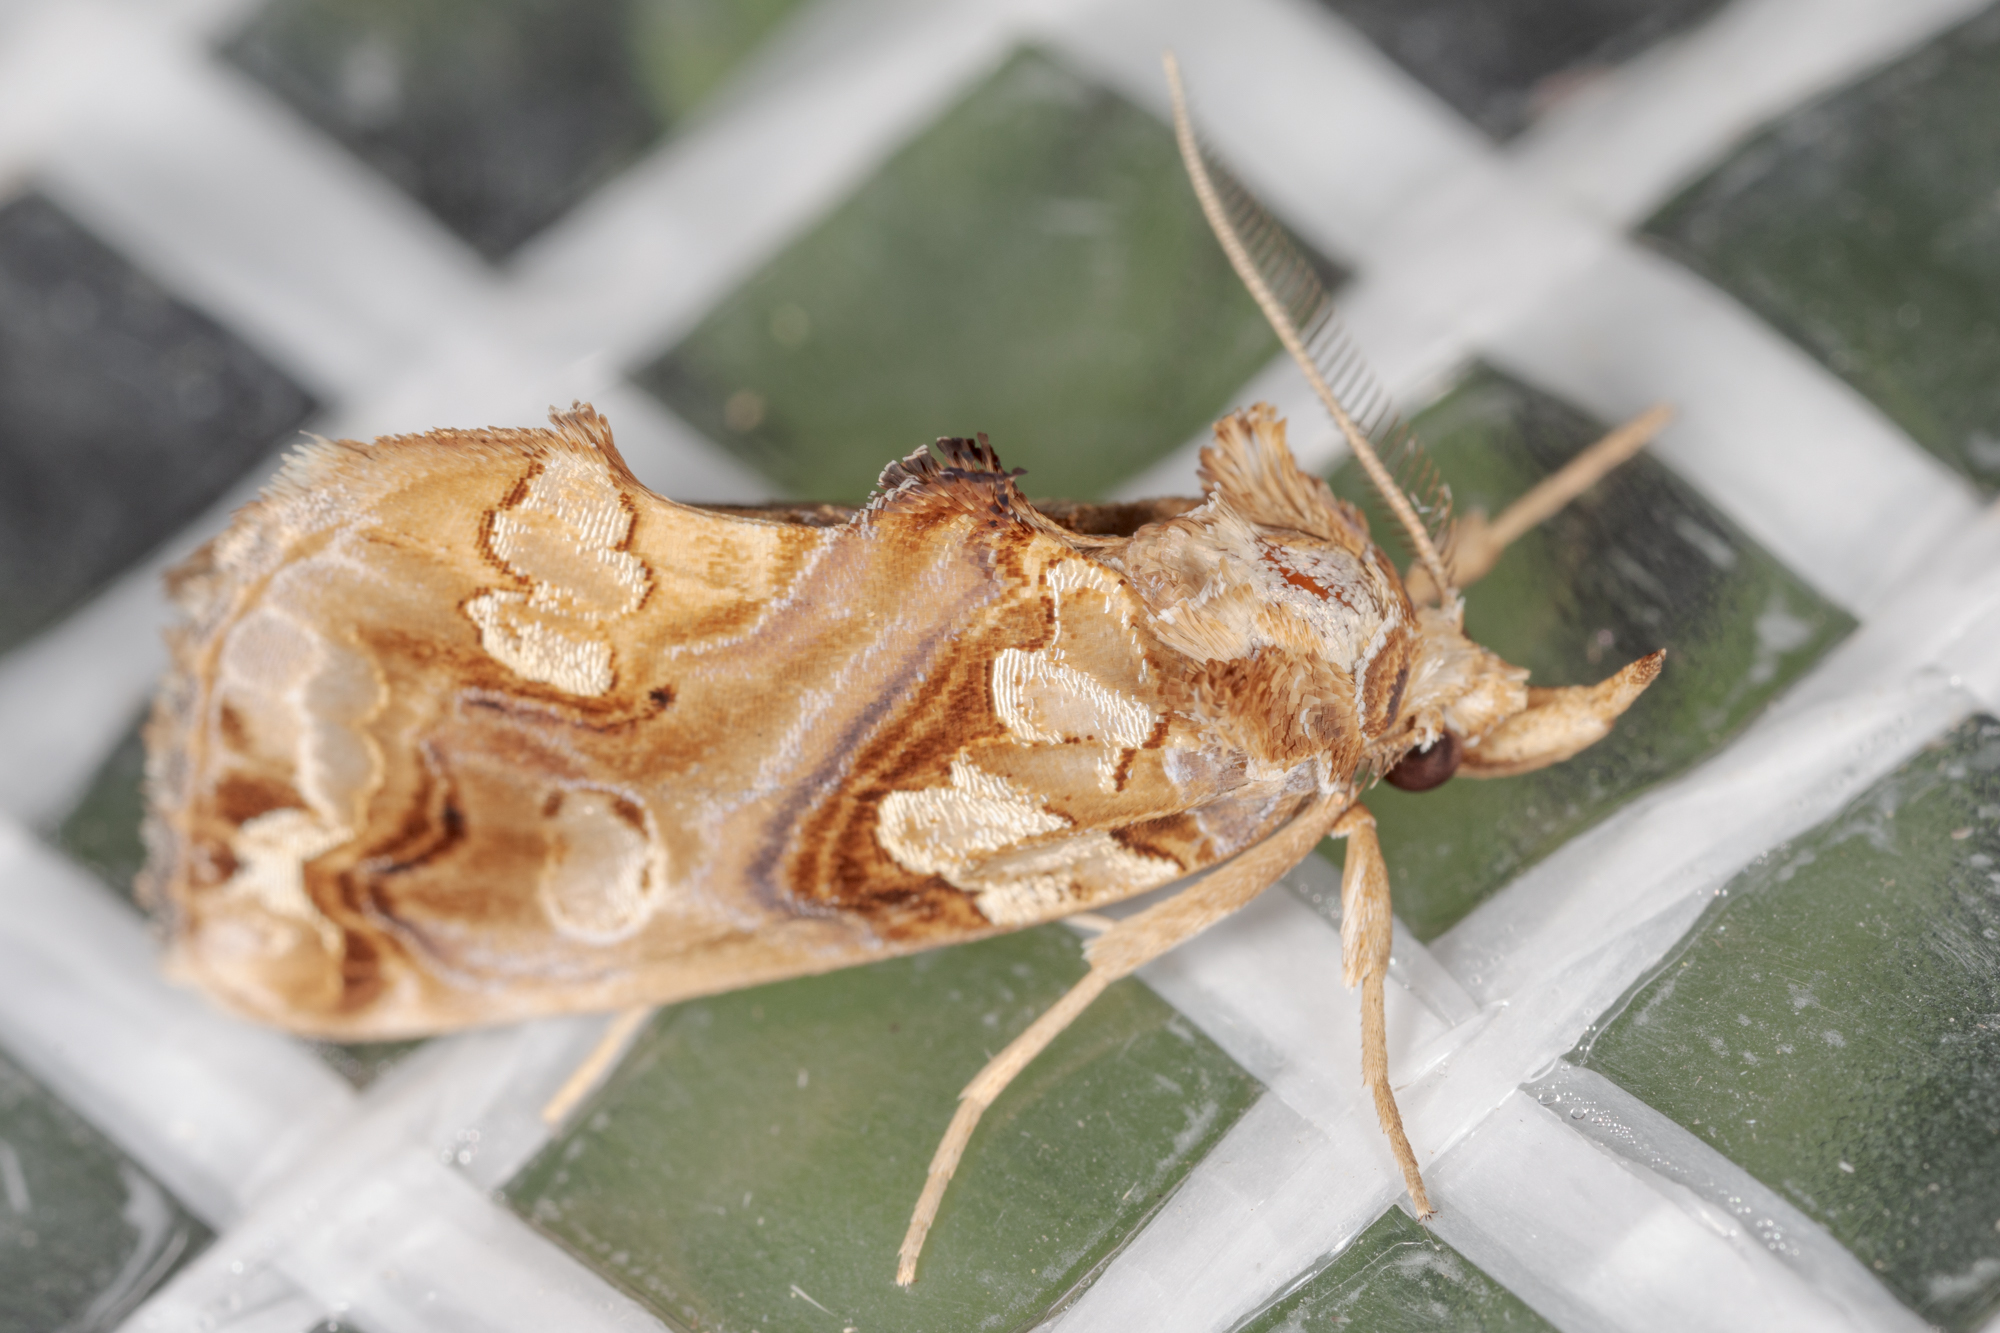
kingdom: Animalia
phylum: Arthropoda
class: Insecta
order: Lepidoptera
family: Erebidae
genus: Plusiodonta
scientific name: Plusiodonta compressipalpis
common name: Moonseed moth
